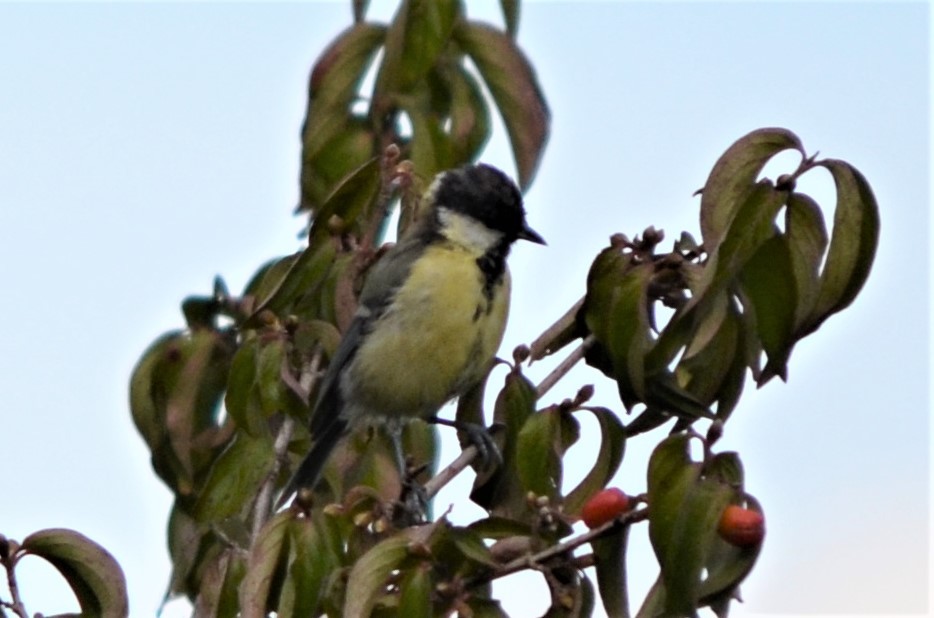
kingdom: Animalia
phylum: Chordata
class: Aves
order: Passeriformes
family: Paridae
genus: Parus
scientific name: Parus major
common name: Great tit
